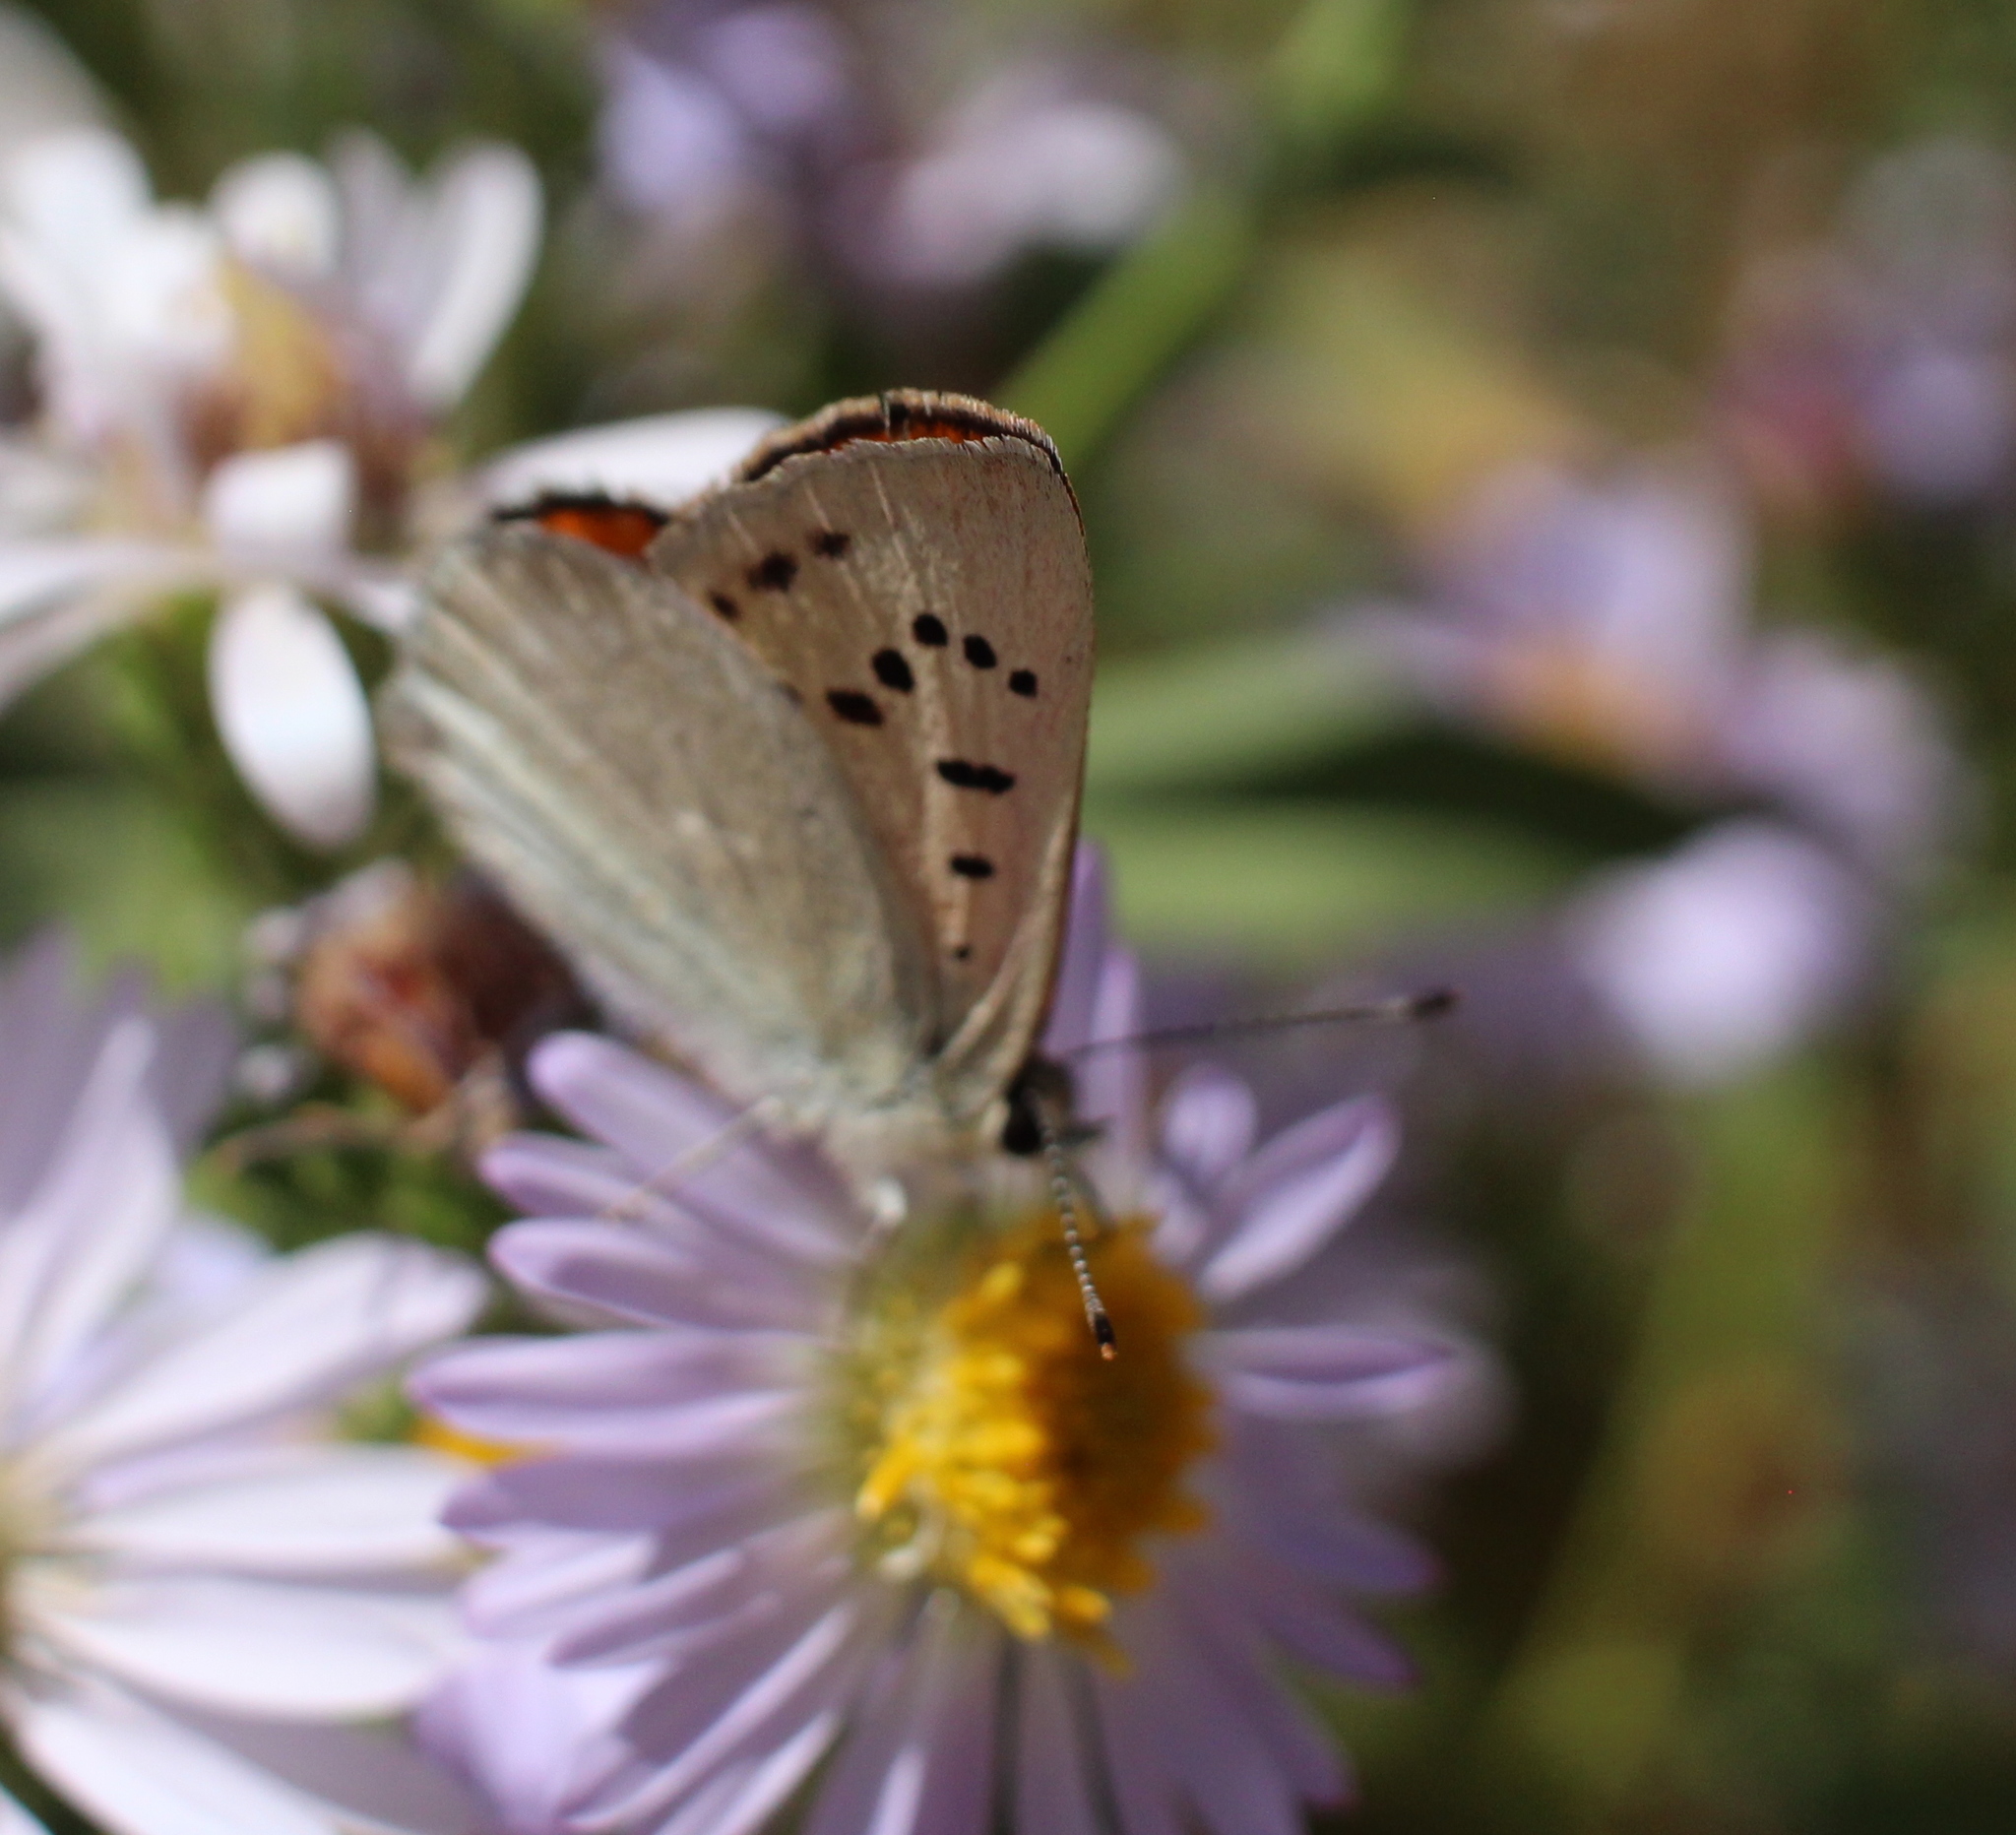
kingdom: Animalia
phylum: Arthropoda
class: Insecta
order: Lepidoptera
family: Lycaenidae
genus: Tharsalea
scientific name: Tharsalea rubidus
